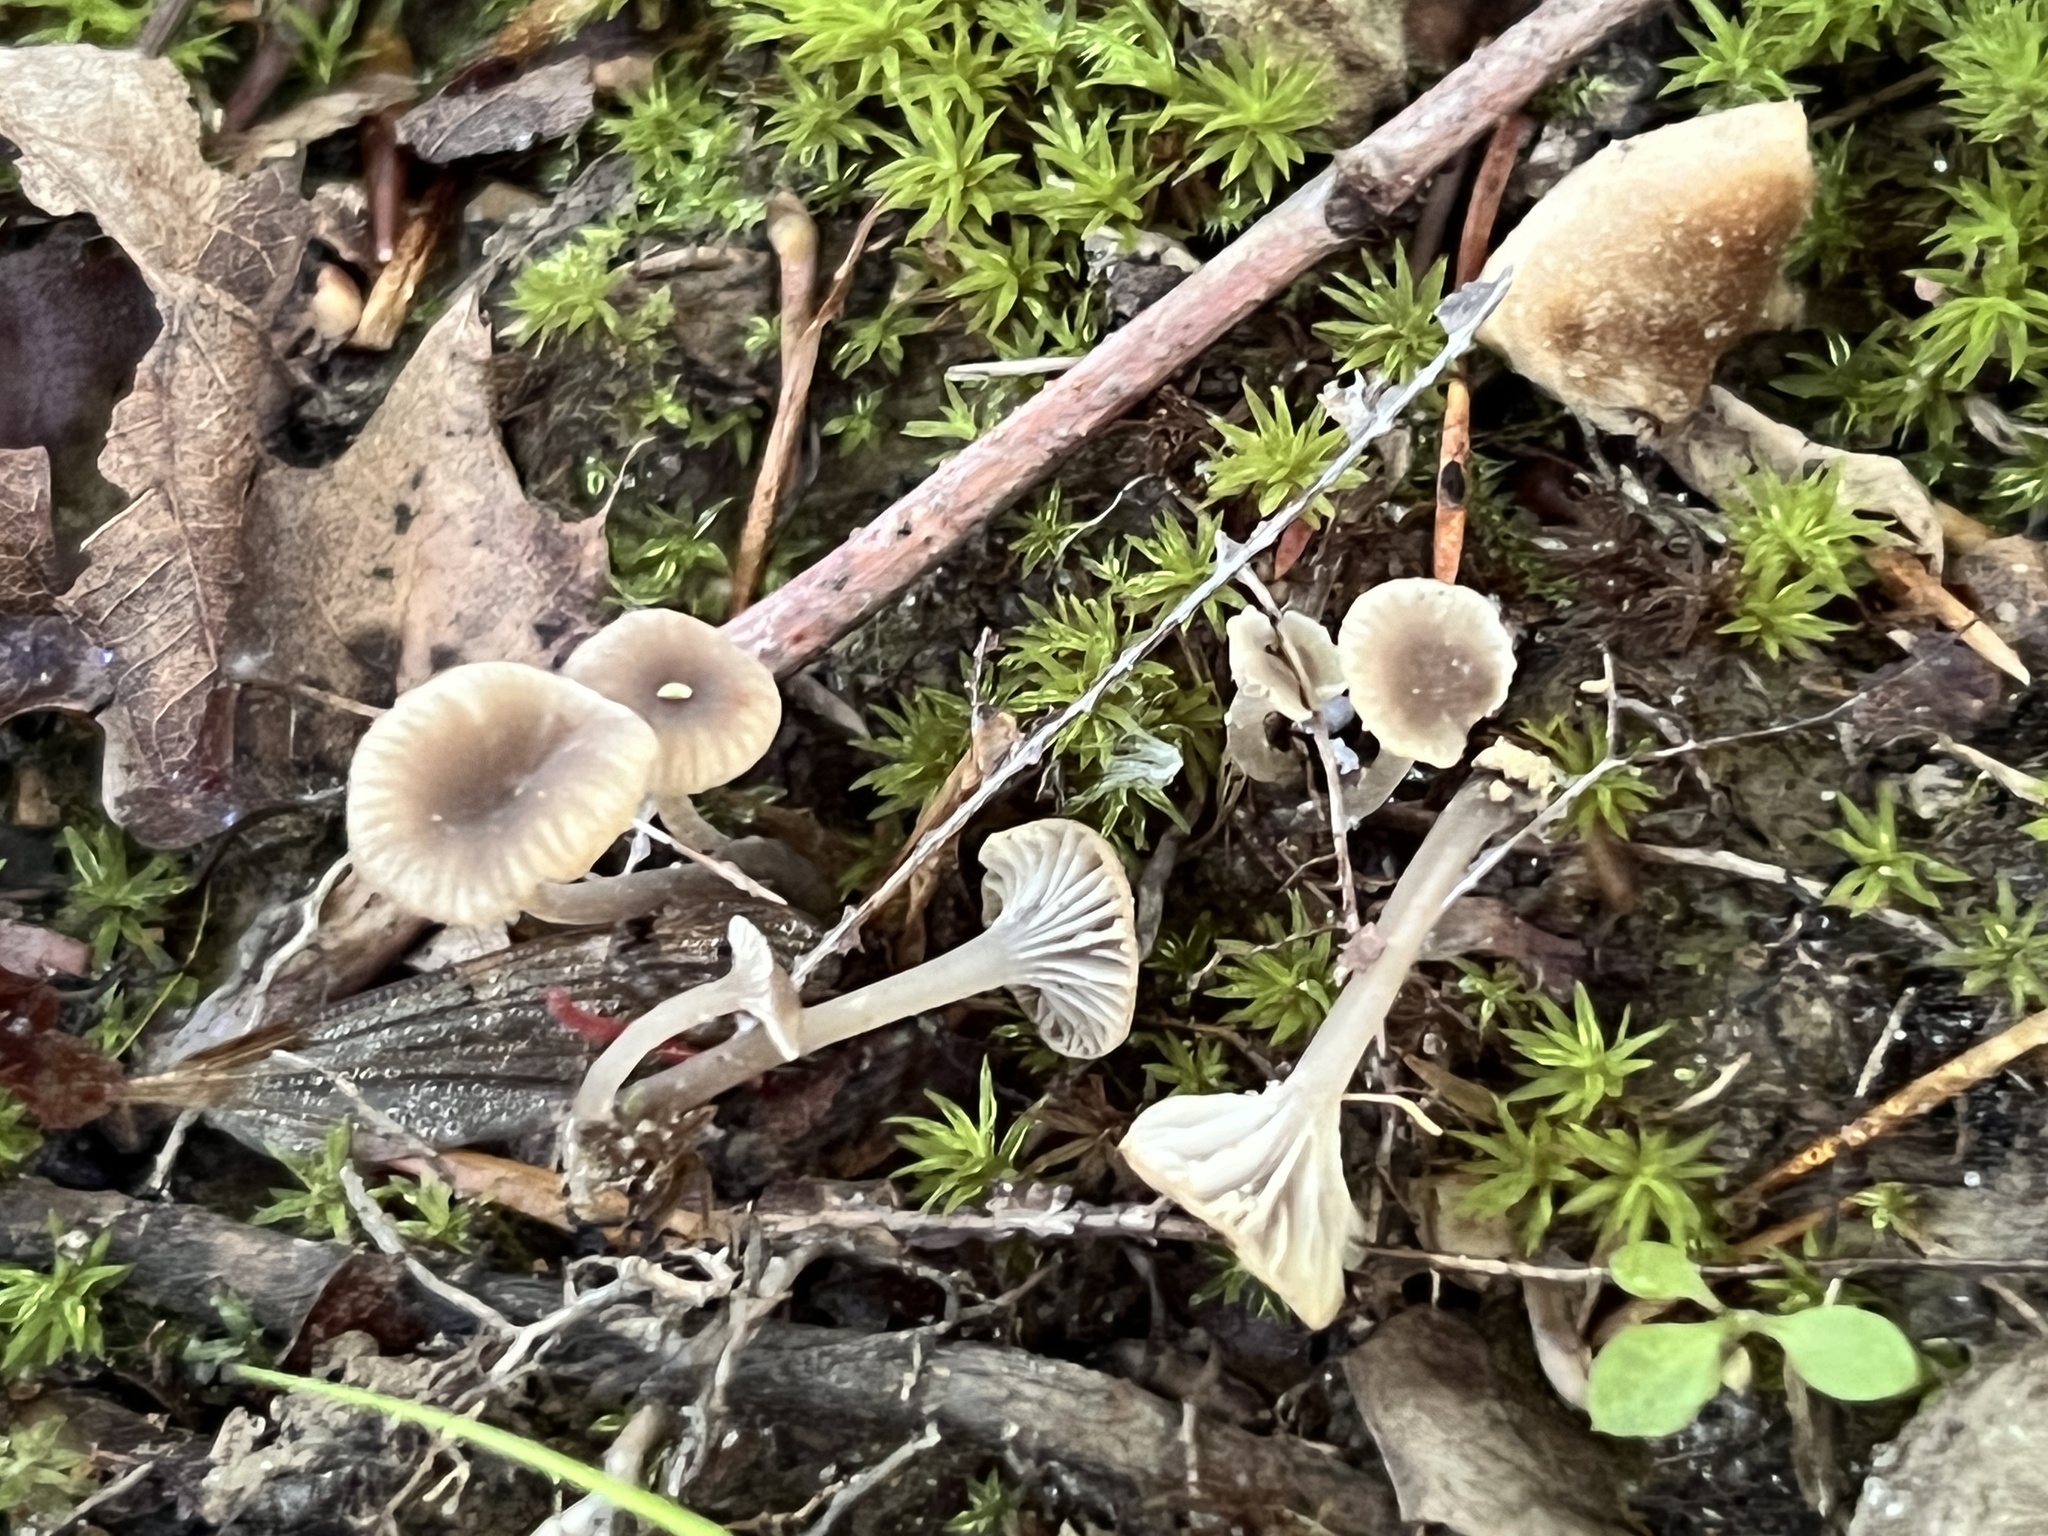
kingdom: Fungi
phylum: Basidiomycota
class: Agaricomycetes
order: Agaricales
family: Mycenaceae
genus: Hydropus
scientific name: Hydropus praedecurrens
